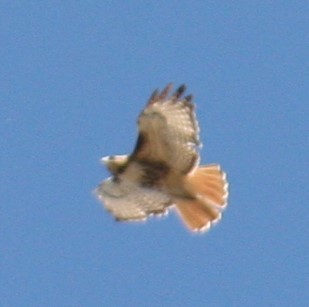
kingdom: Animalia
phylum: Chordata
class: Aves
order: Accipitriformes
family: Accipitridae
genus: Buteo
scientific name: Buteo jamaicensis
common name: Red-tailed hawk
